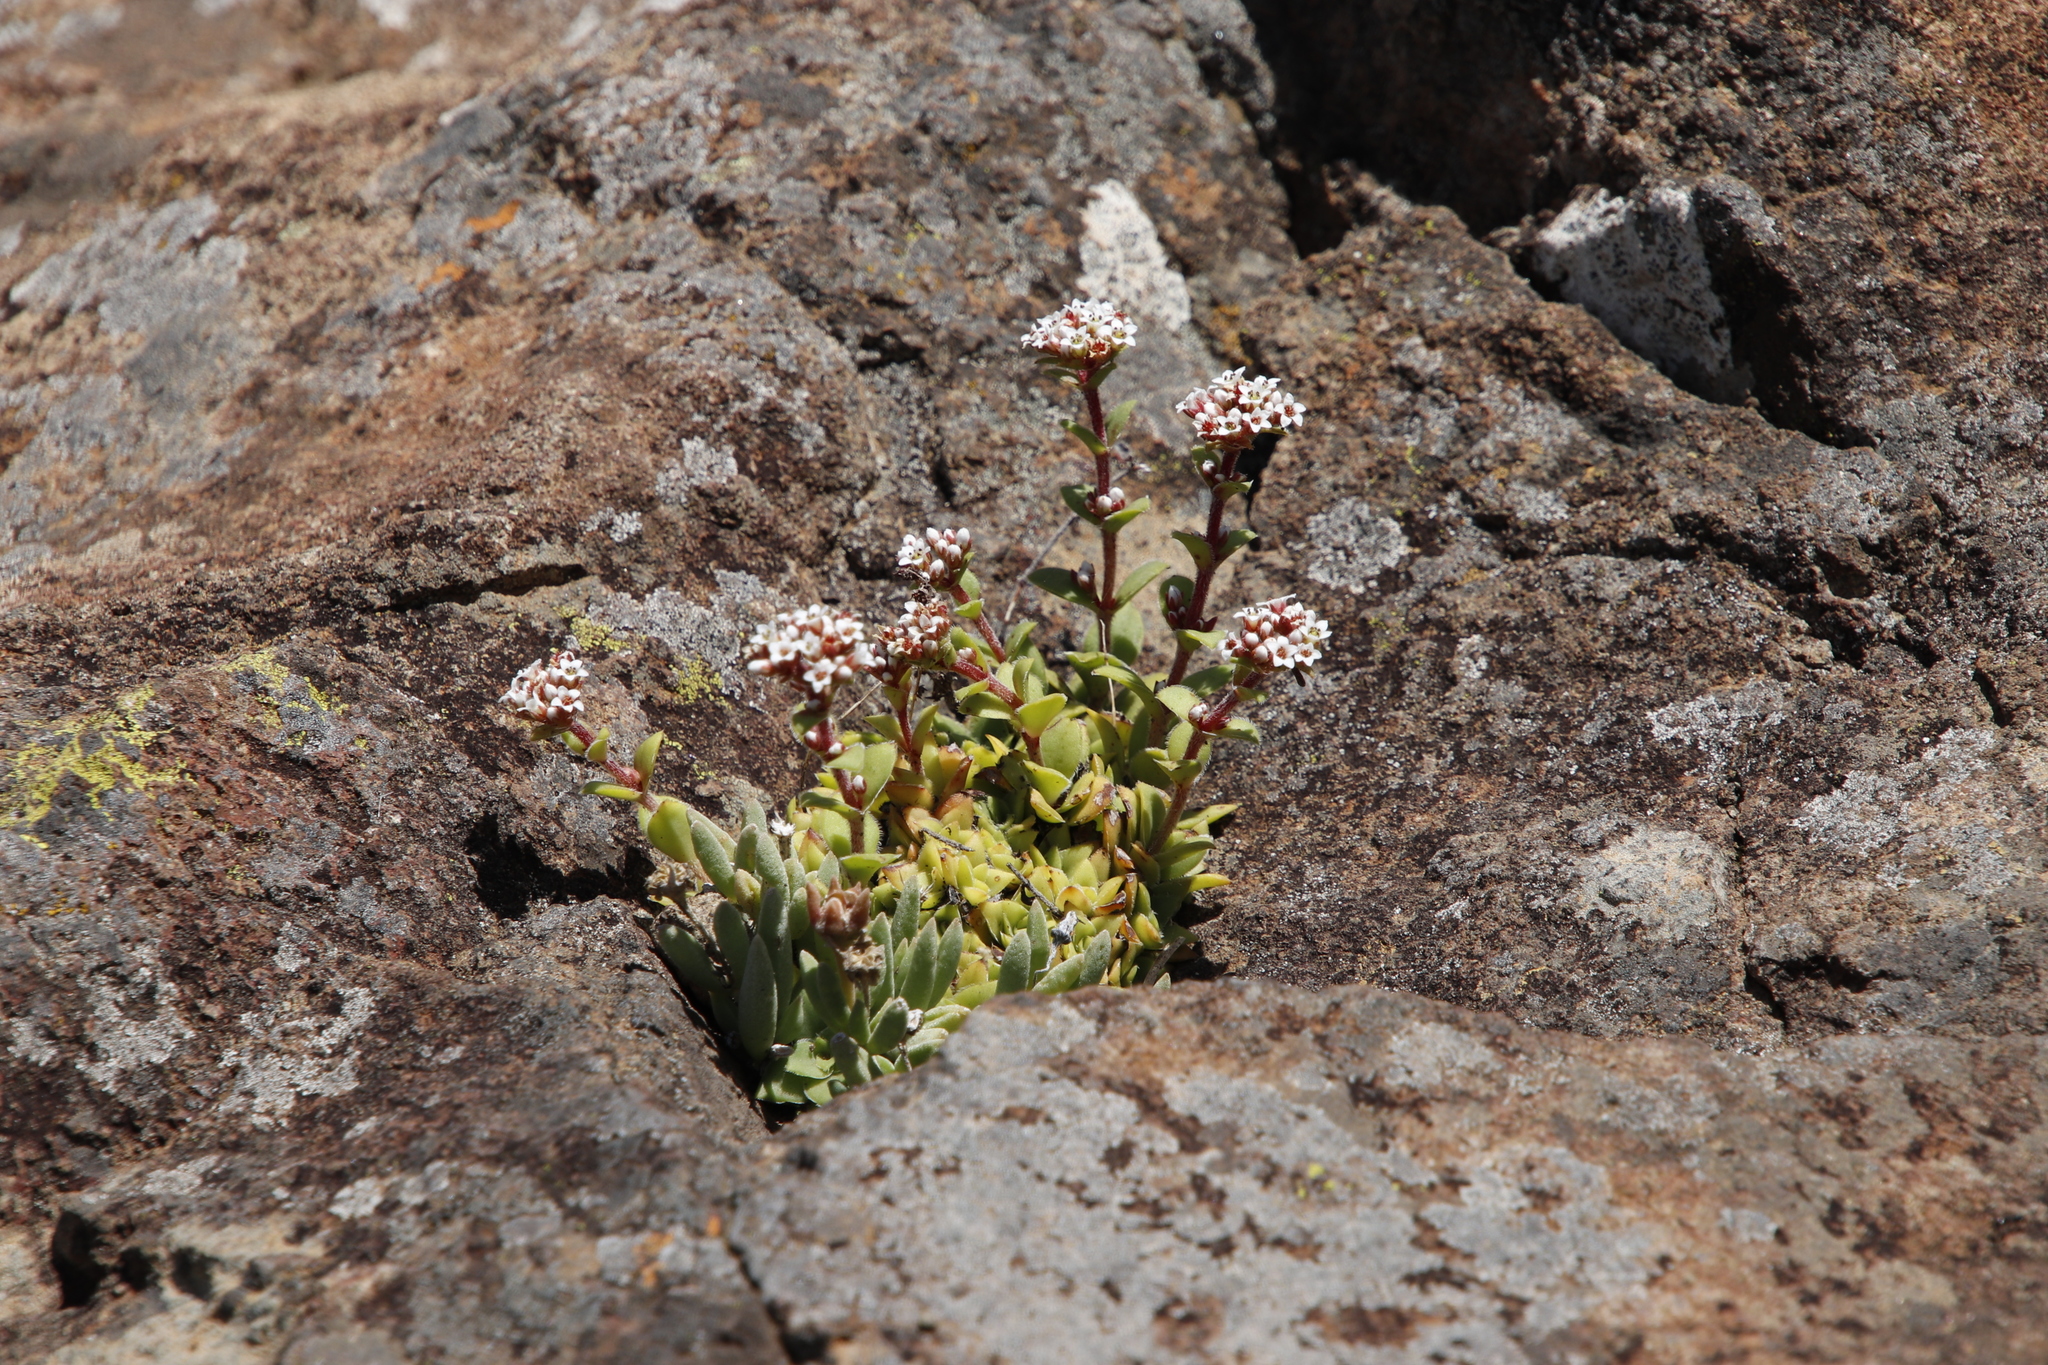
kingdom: Plantae
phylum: Tracheophyta
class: Magnoliopsida
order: Saxifragales
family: Crassulaceae
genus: Crassula
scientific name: Crassula setulosa
